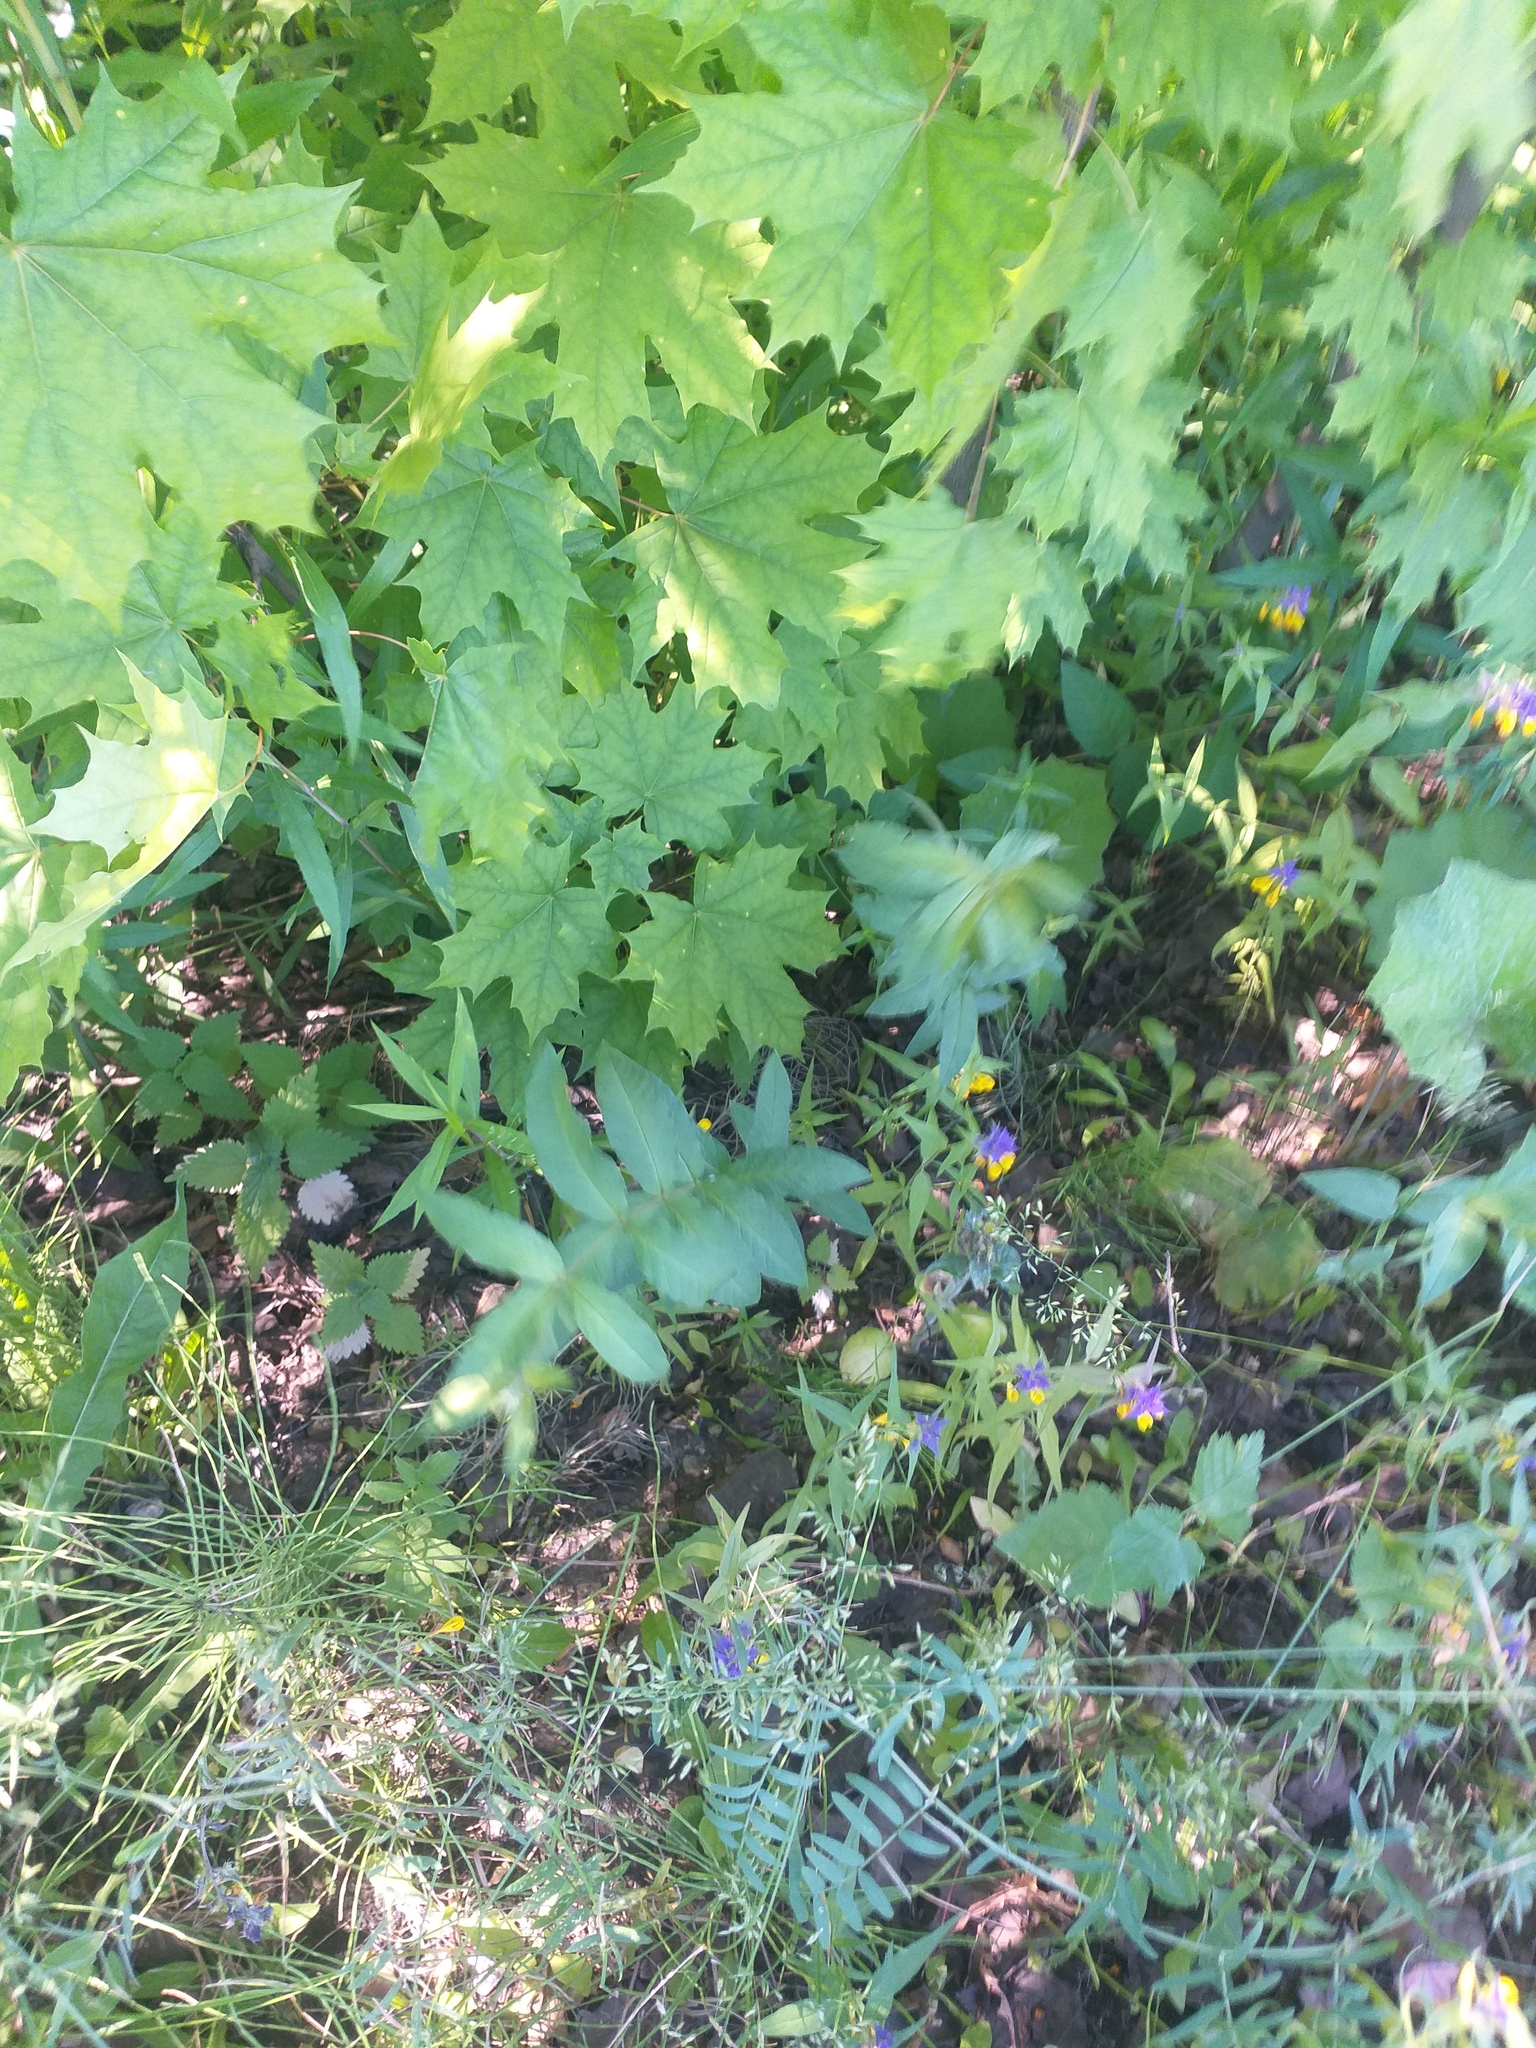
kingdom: Plantae
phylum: Tracheophyta
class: Magnoliopsida
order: Ericales
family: Primulaceae
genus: Lysimachia
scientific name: Lysimachia vulgaris
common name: Yellow loosestrife
